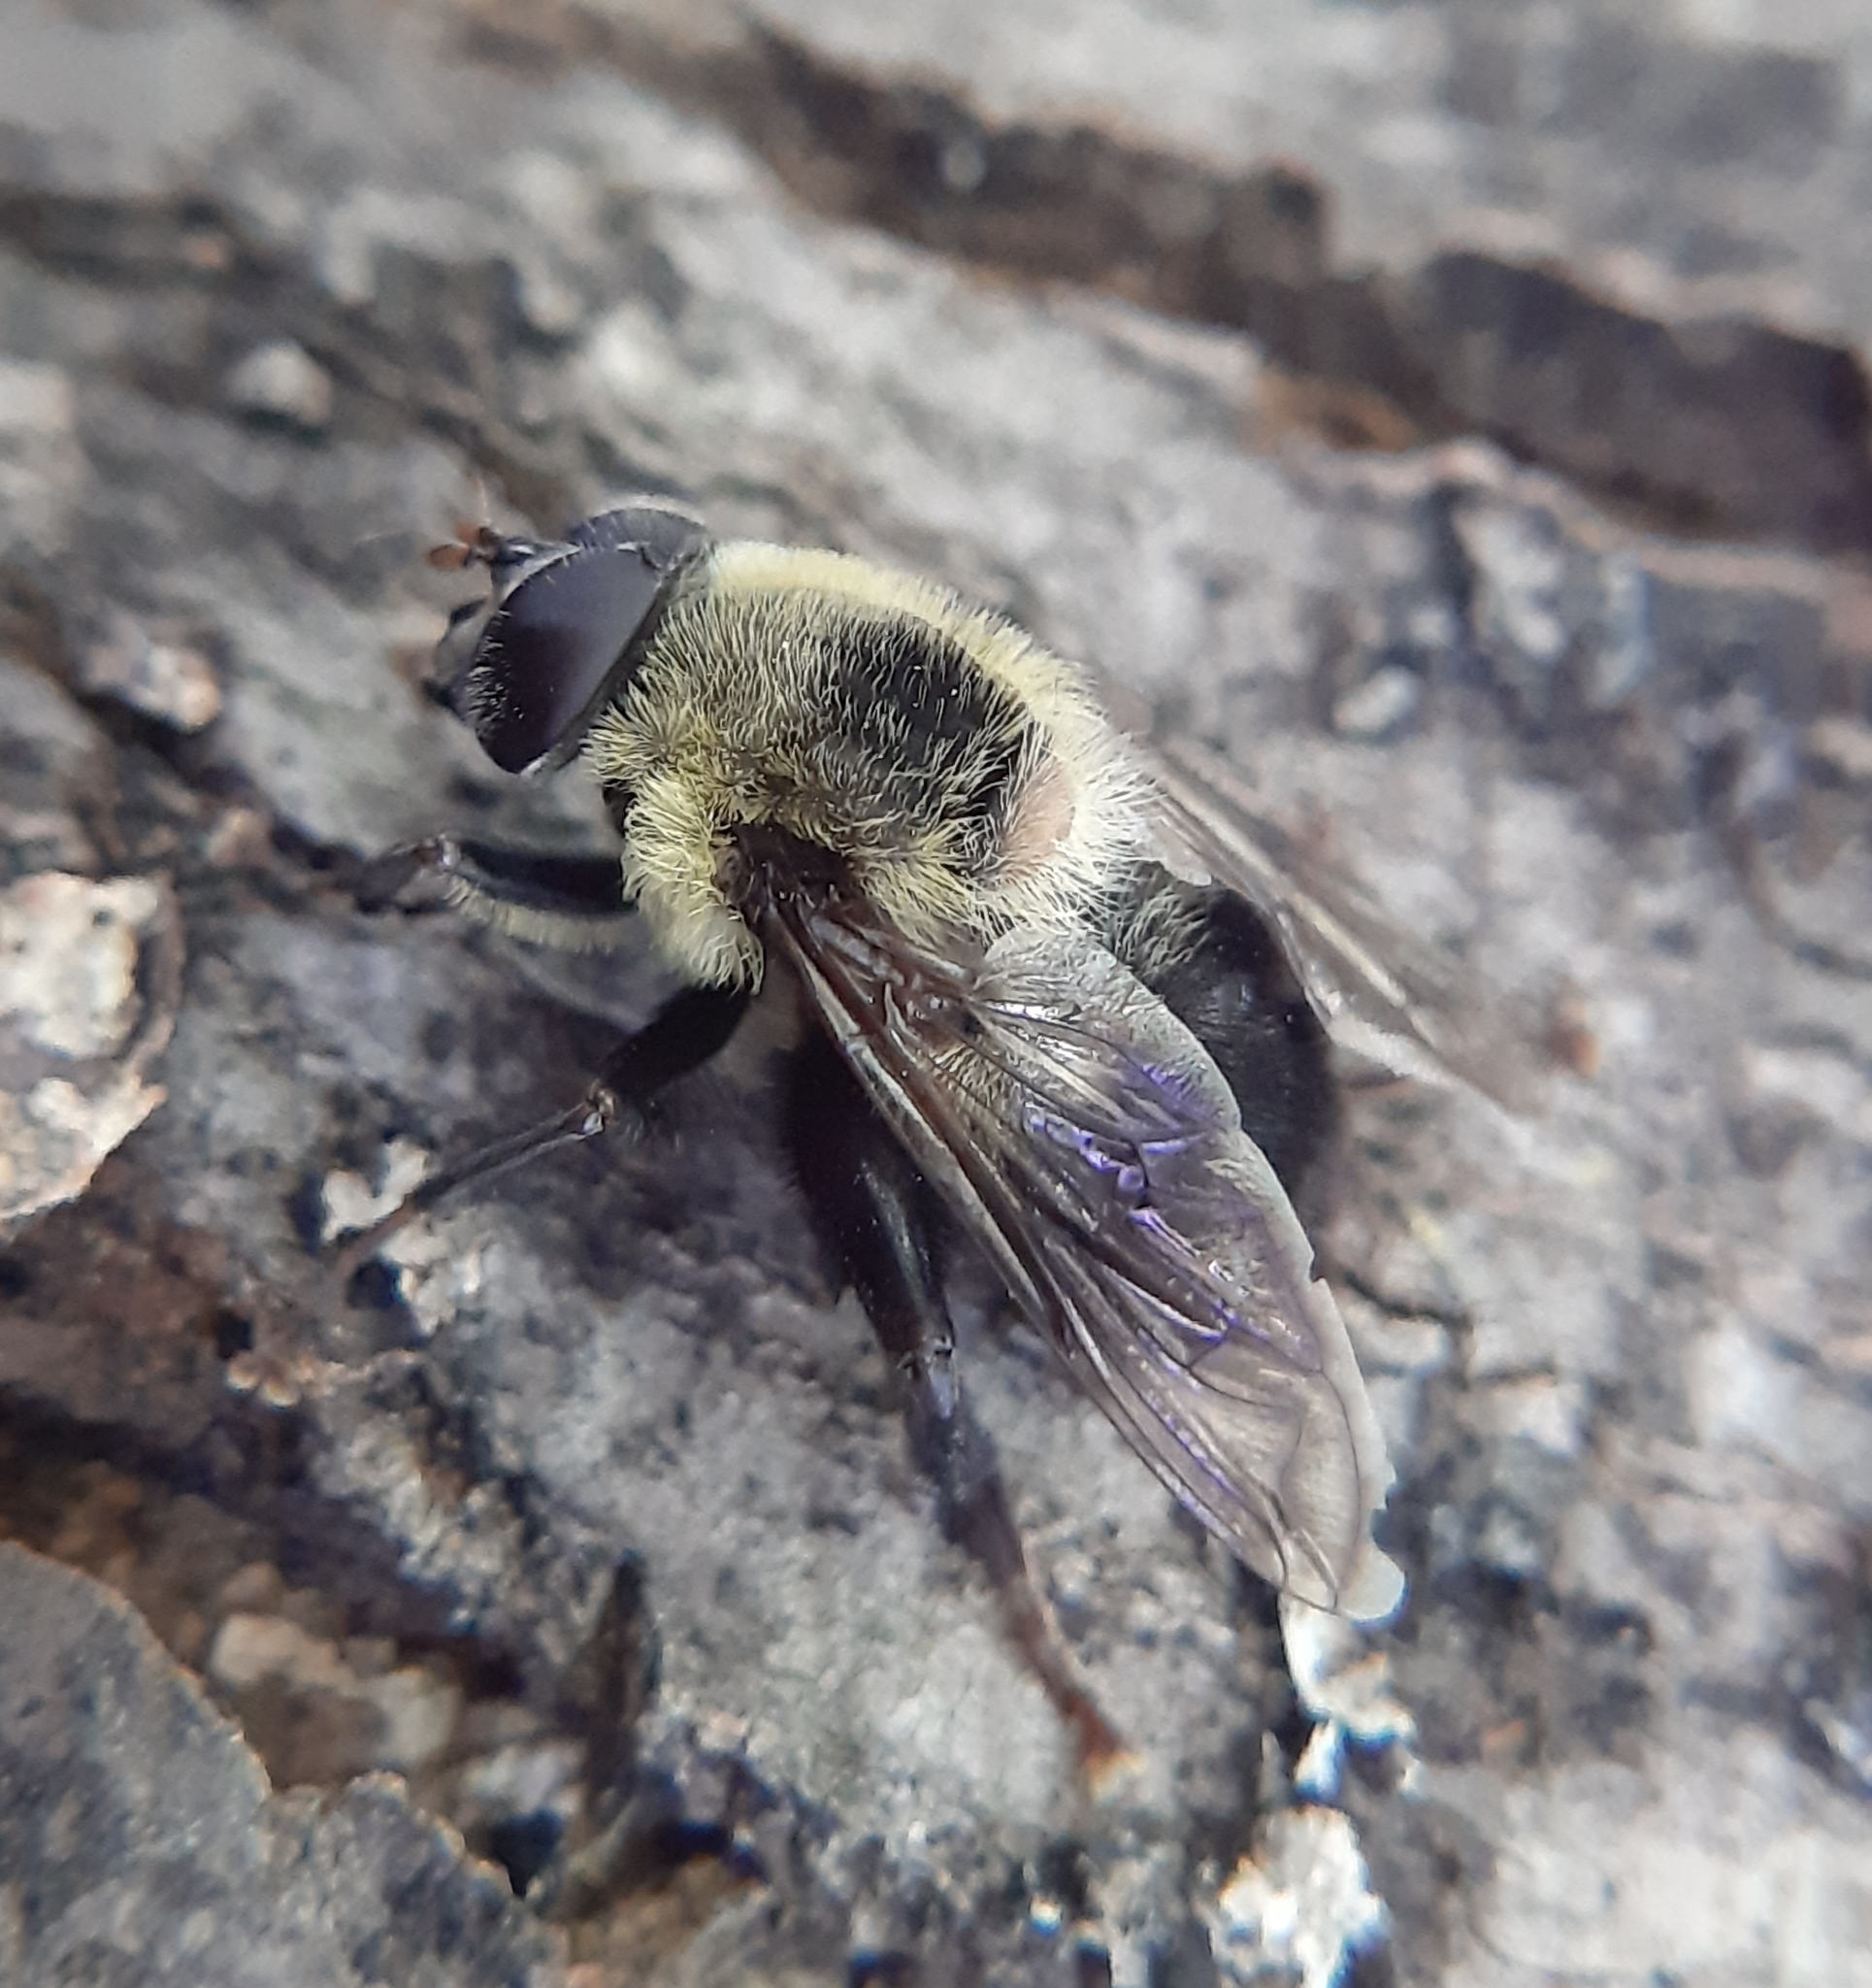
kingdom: Animalia
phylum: Arthropoda
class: Insecta
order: Diptera
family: Syrphidae
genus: Imatisma
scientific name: Imatisma posticata
